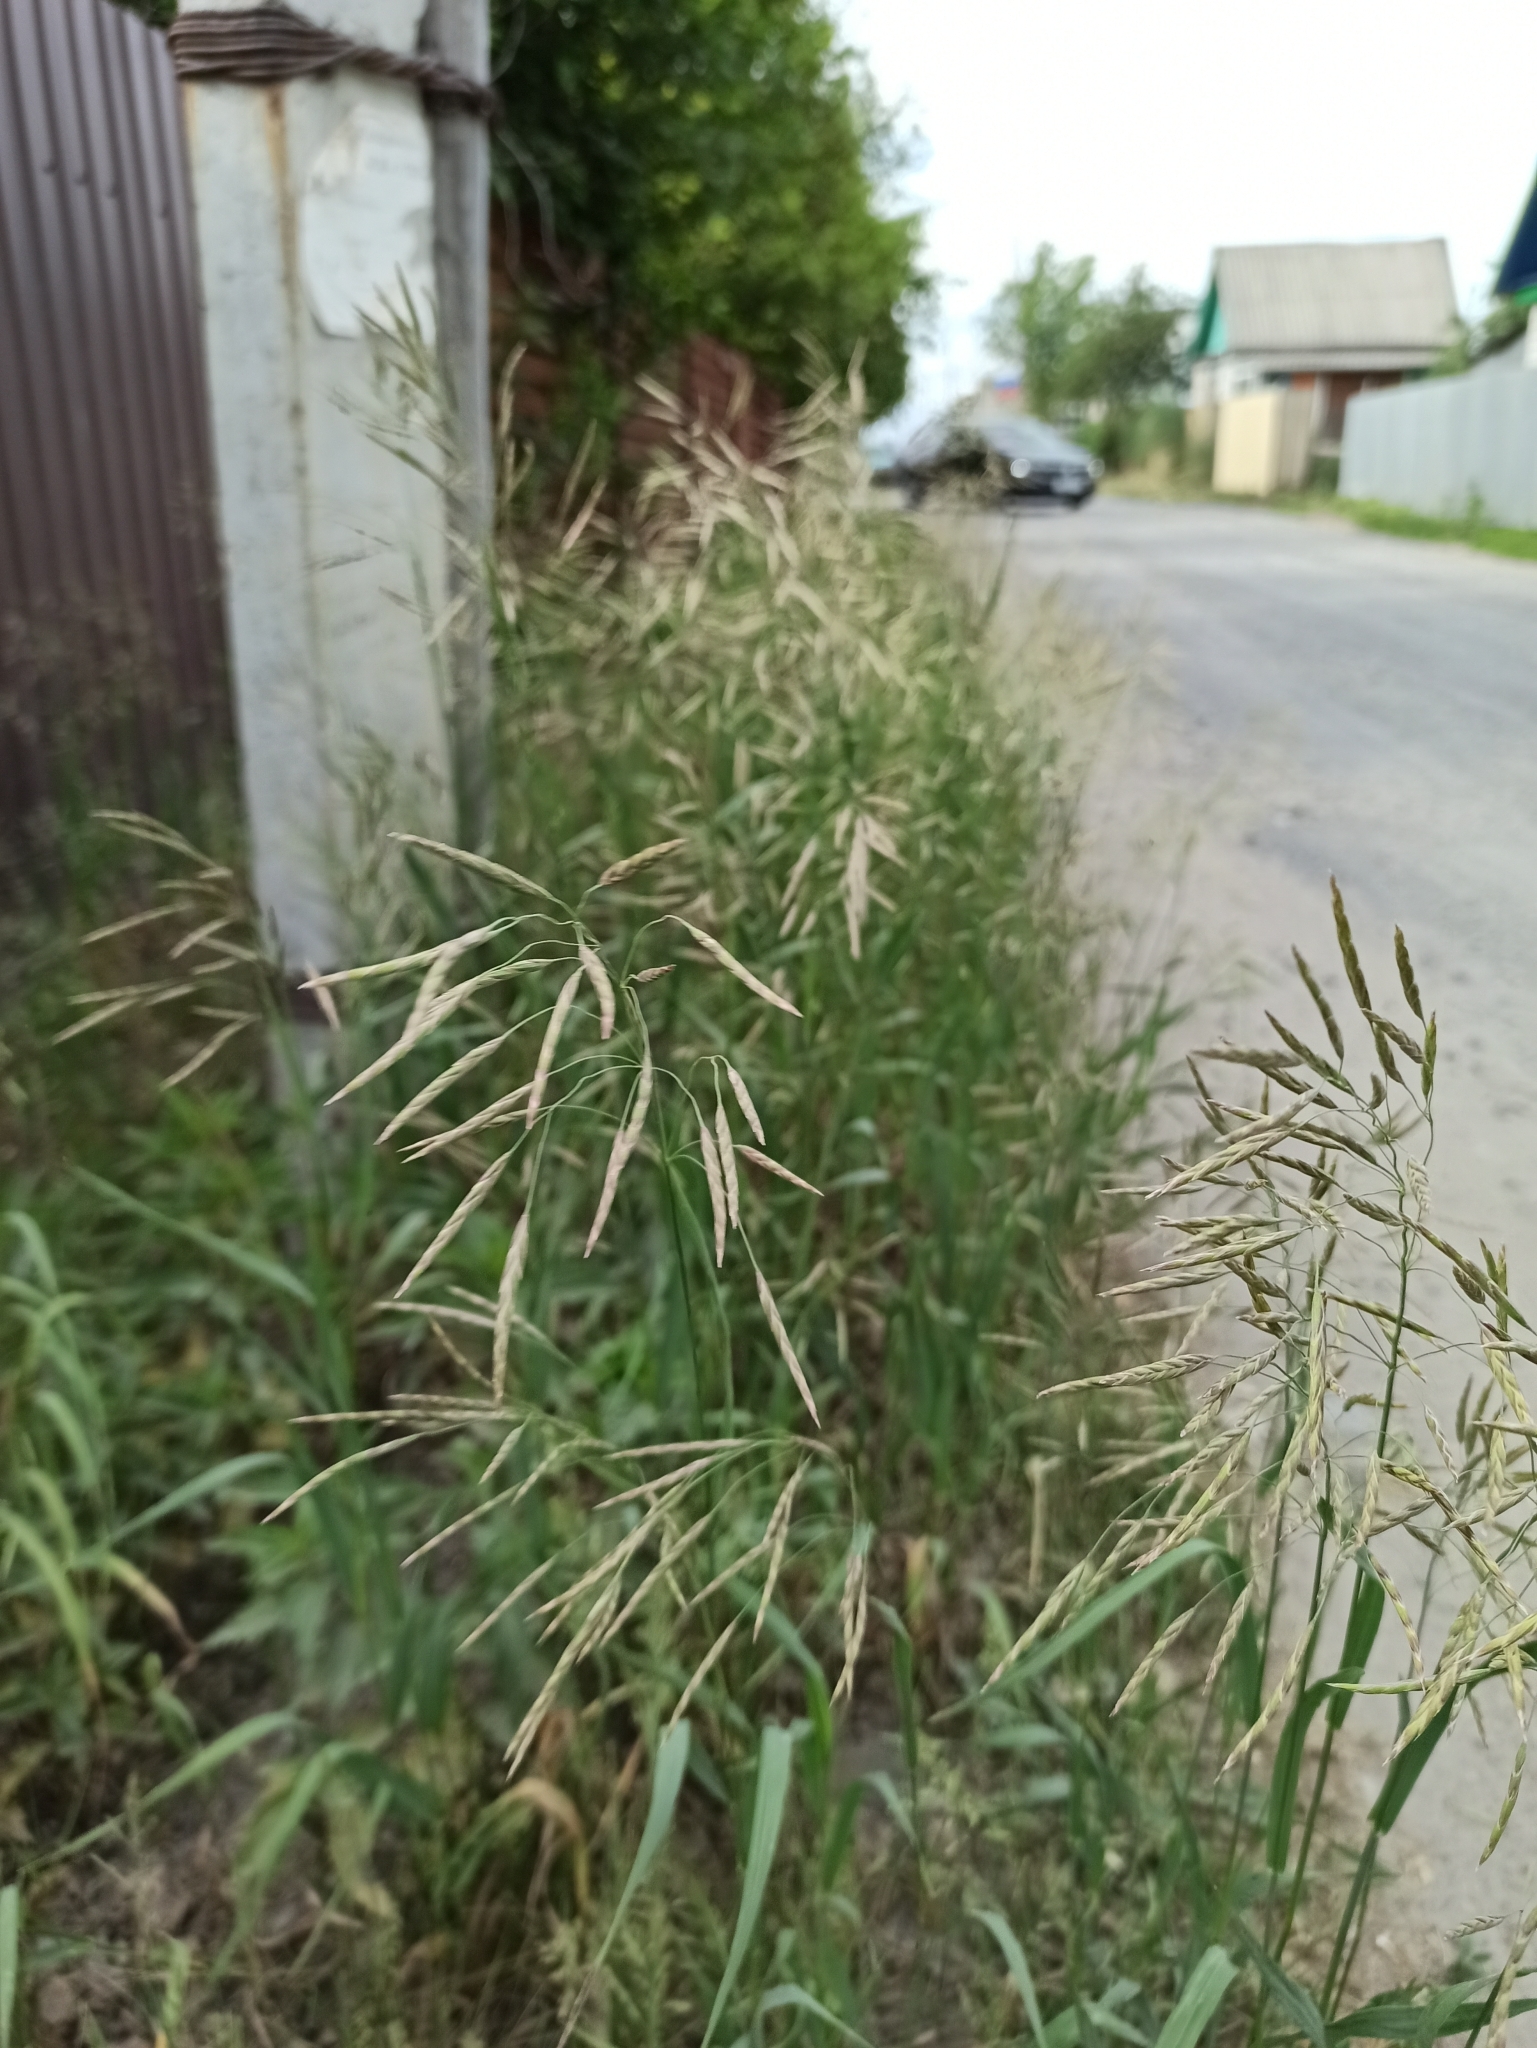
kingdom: Plantae
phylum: Tracheophyta
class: Liliopsida
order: Poales
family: Poaceae
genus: Bromus
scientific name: Bromus inermis
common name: Smooth brome
